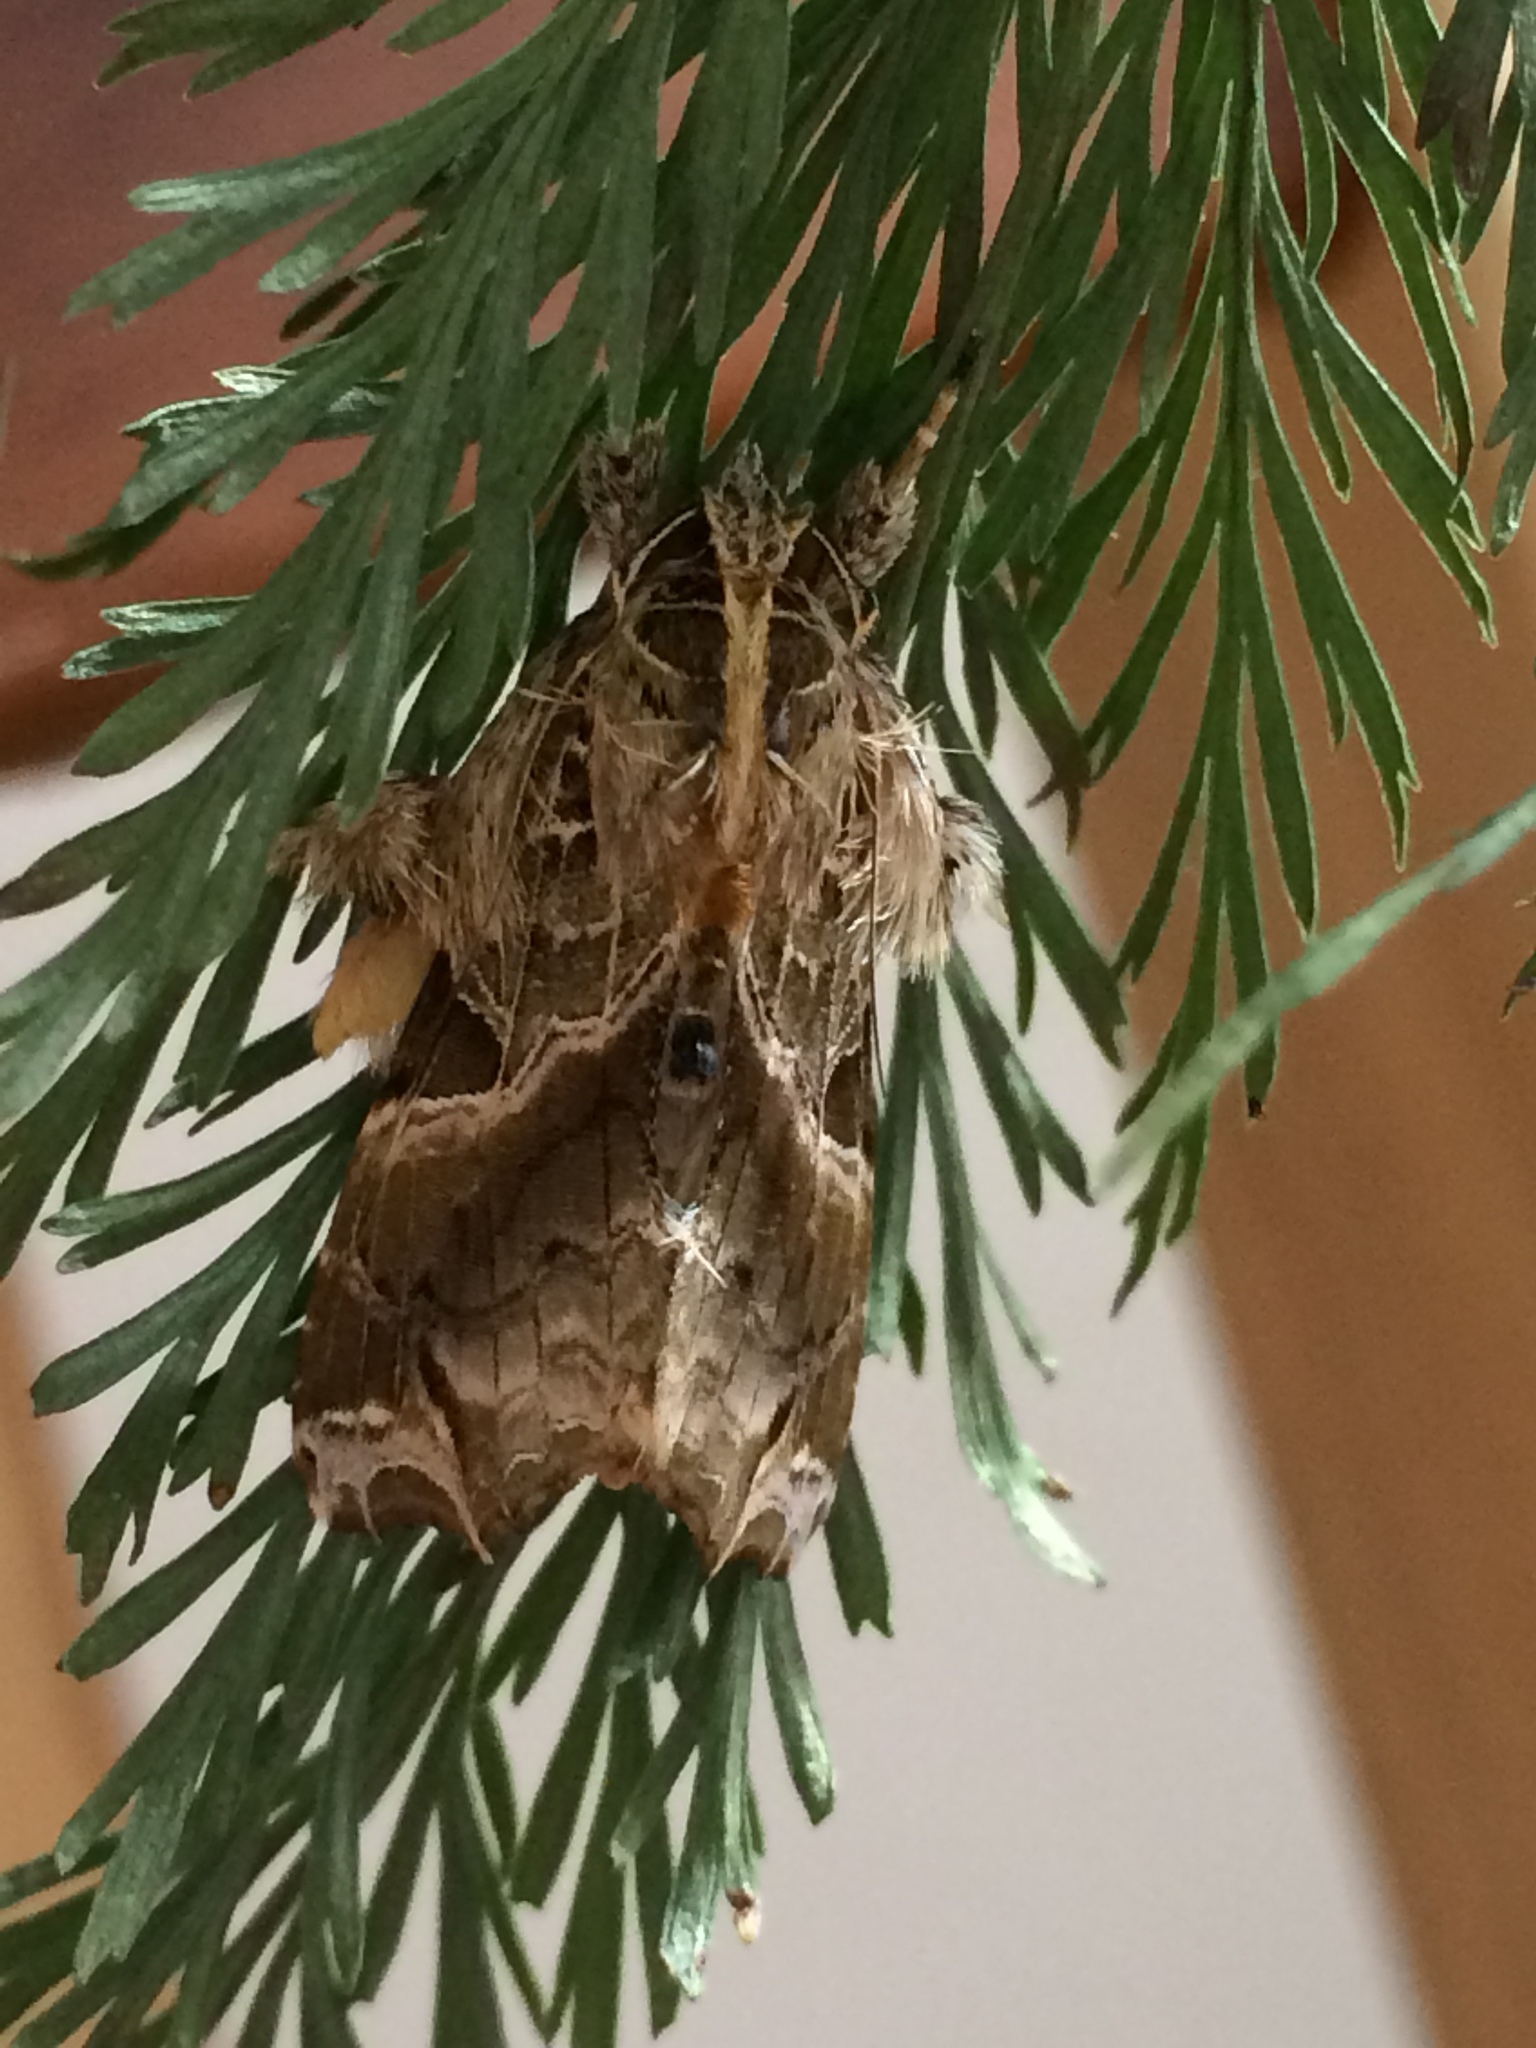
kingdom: Animalia
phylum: Arthropoda
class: Insecta
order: Lepidoptera
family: Noctuidae
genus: Callopistria
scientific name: Callopistria floridensis
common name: Florida fern moth
